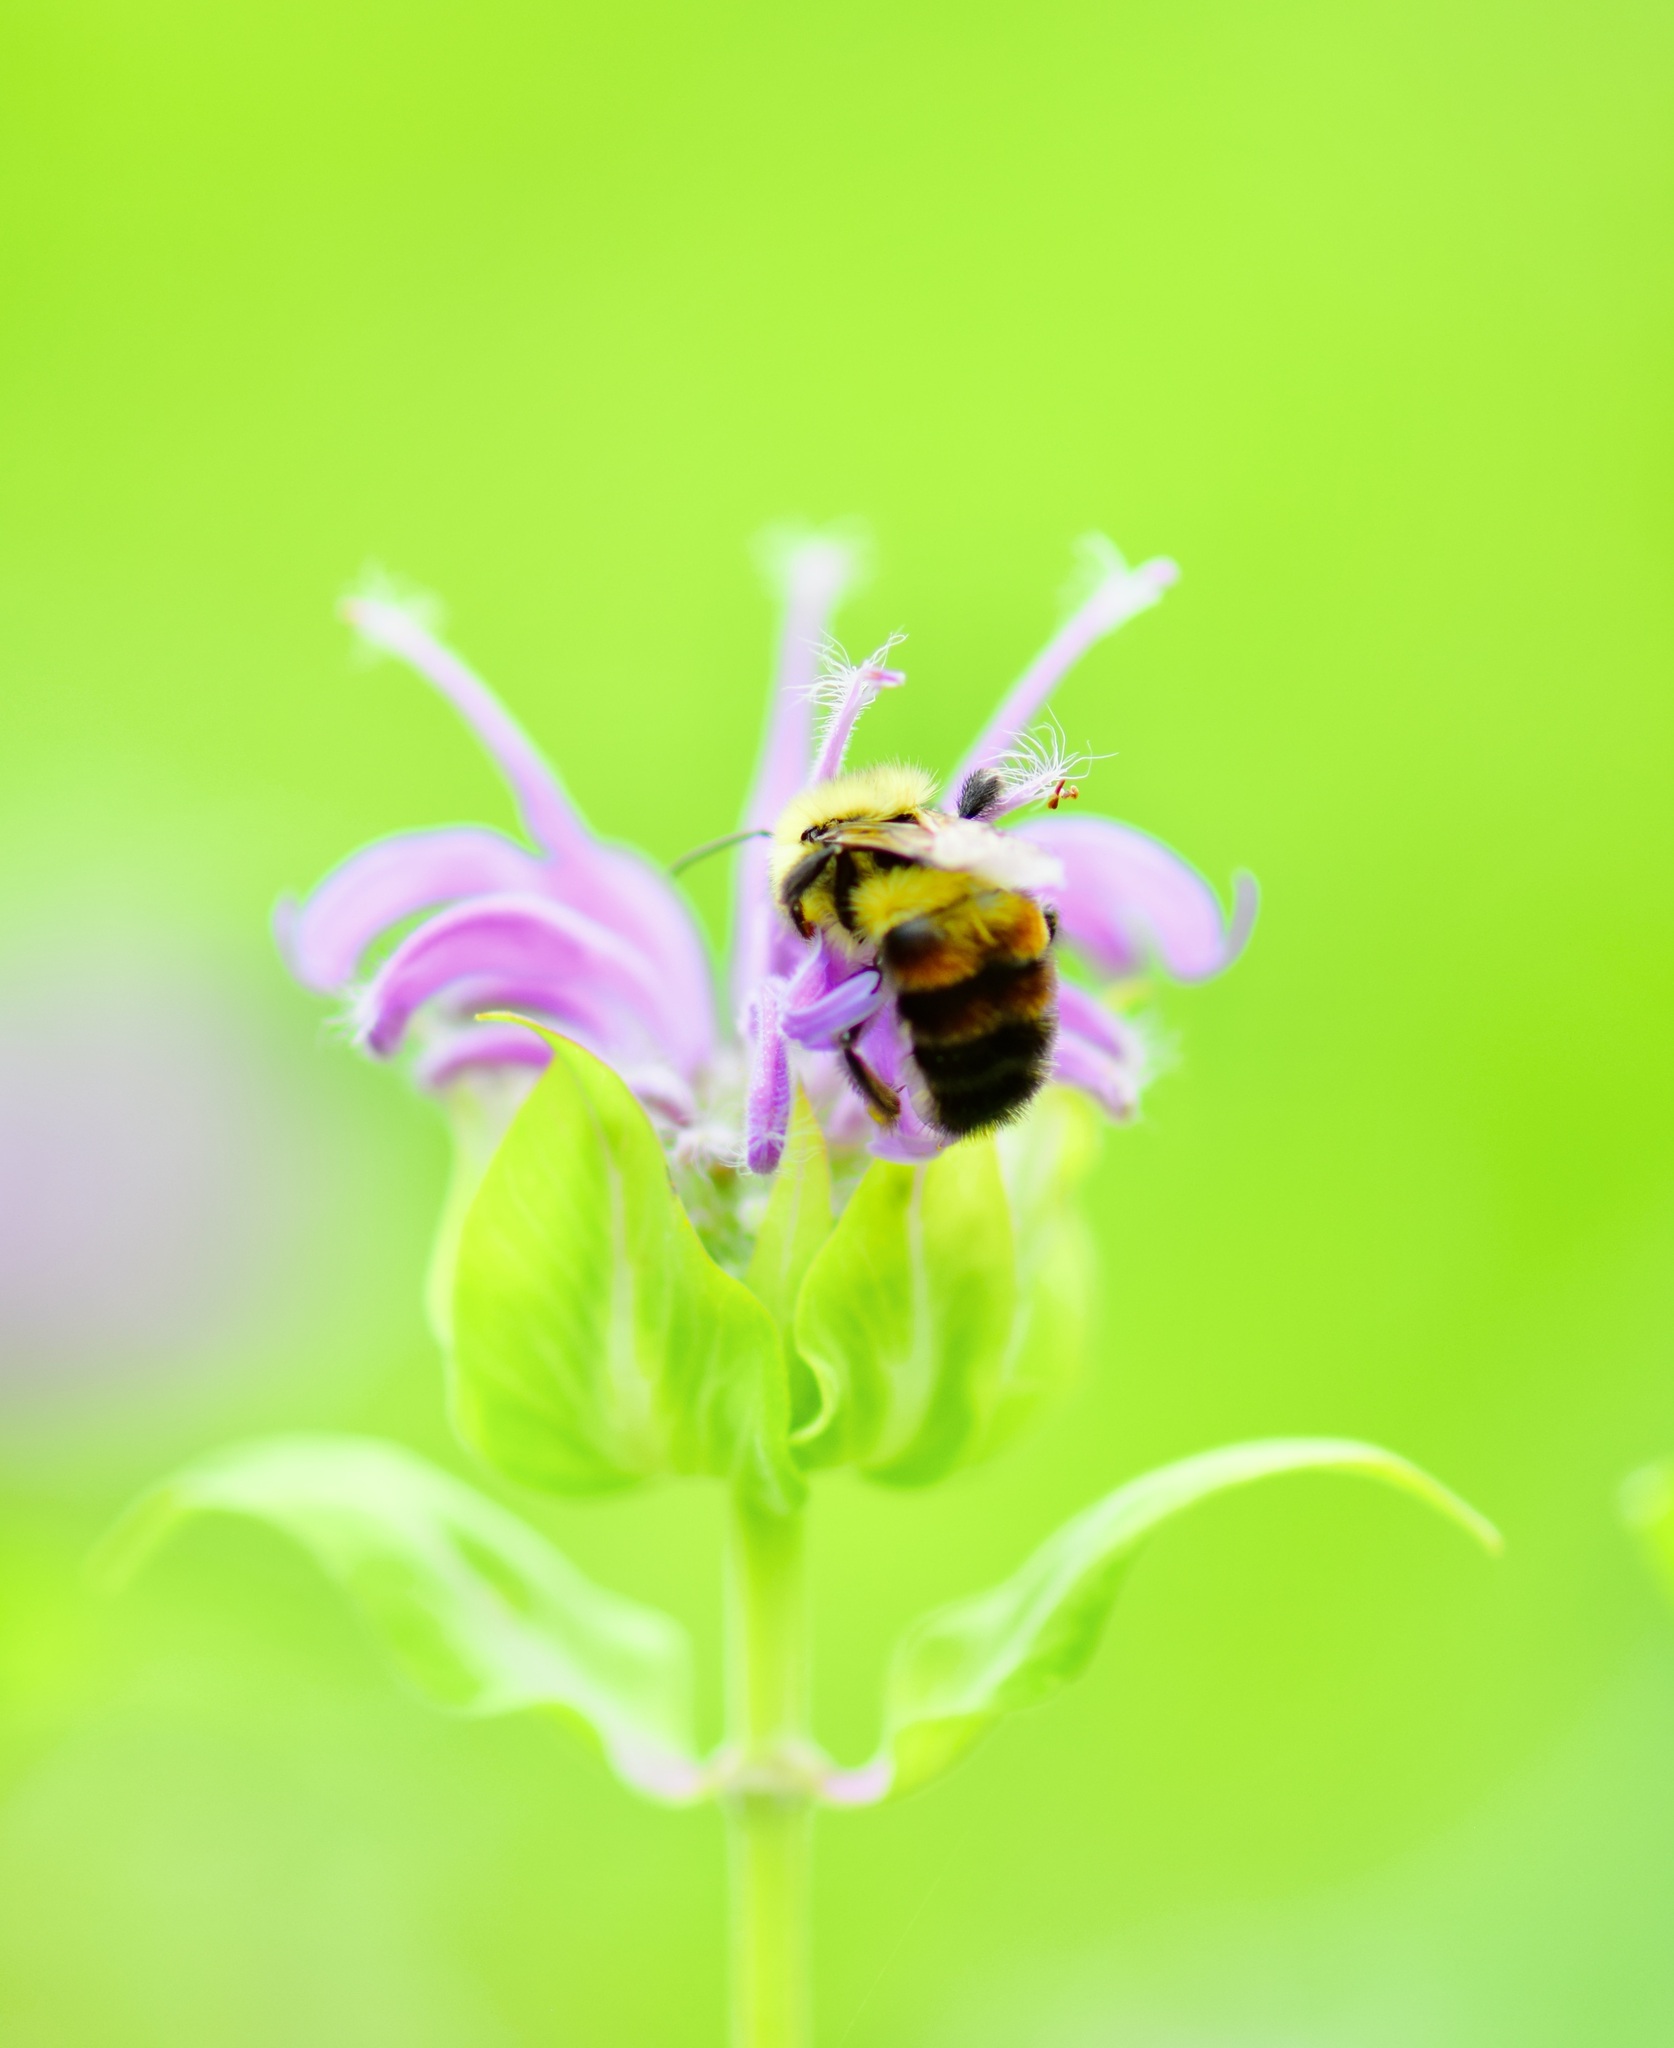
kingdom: Animalia
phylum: Arthropoda
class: Insecta
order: Hymenoptera
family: Apidae
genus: Bombus
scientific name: Bombus bimaculatus
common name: Two-spotted bumble bee
